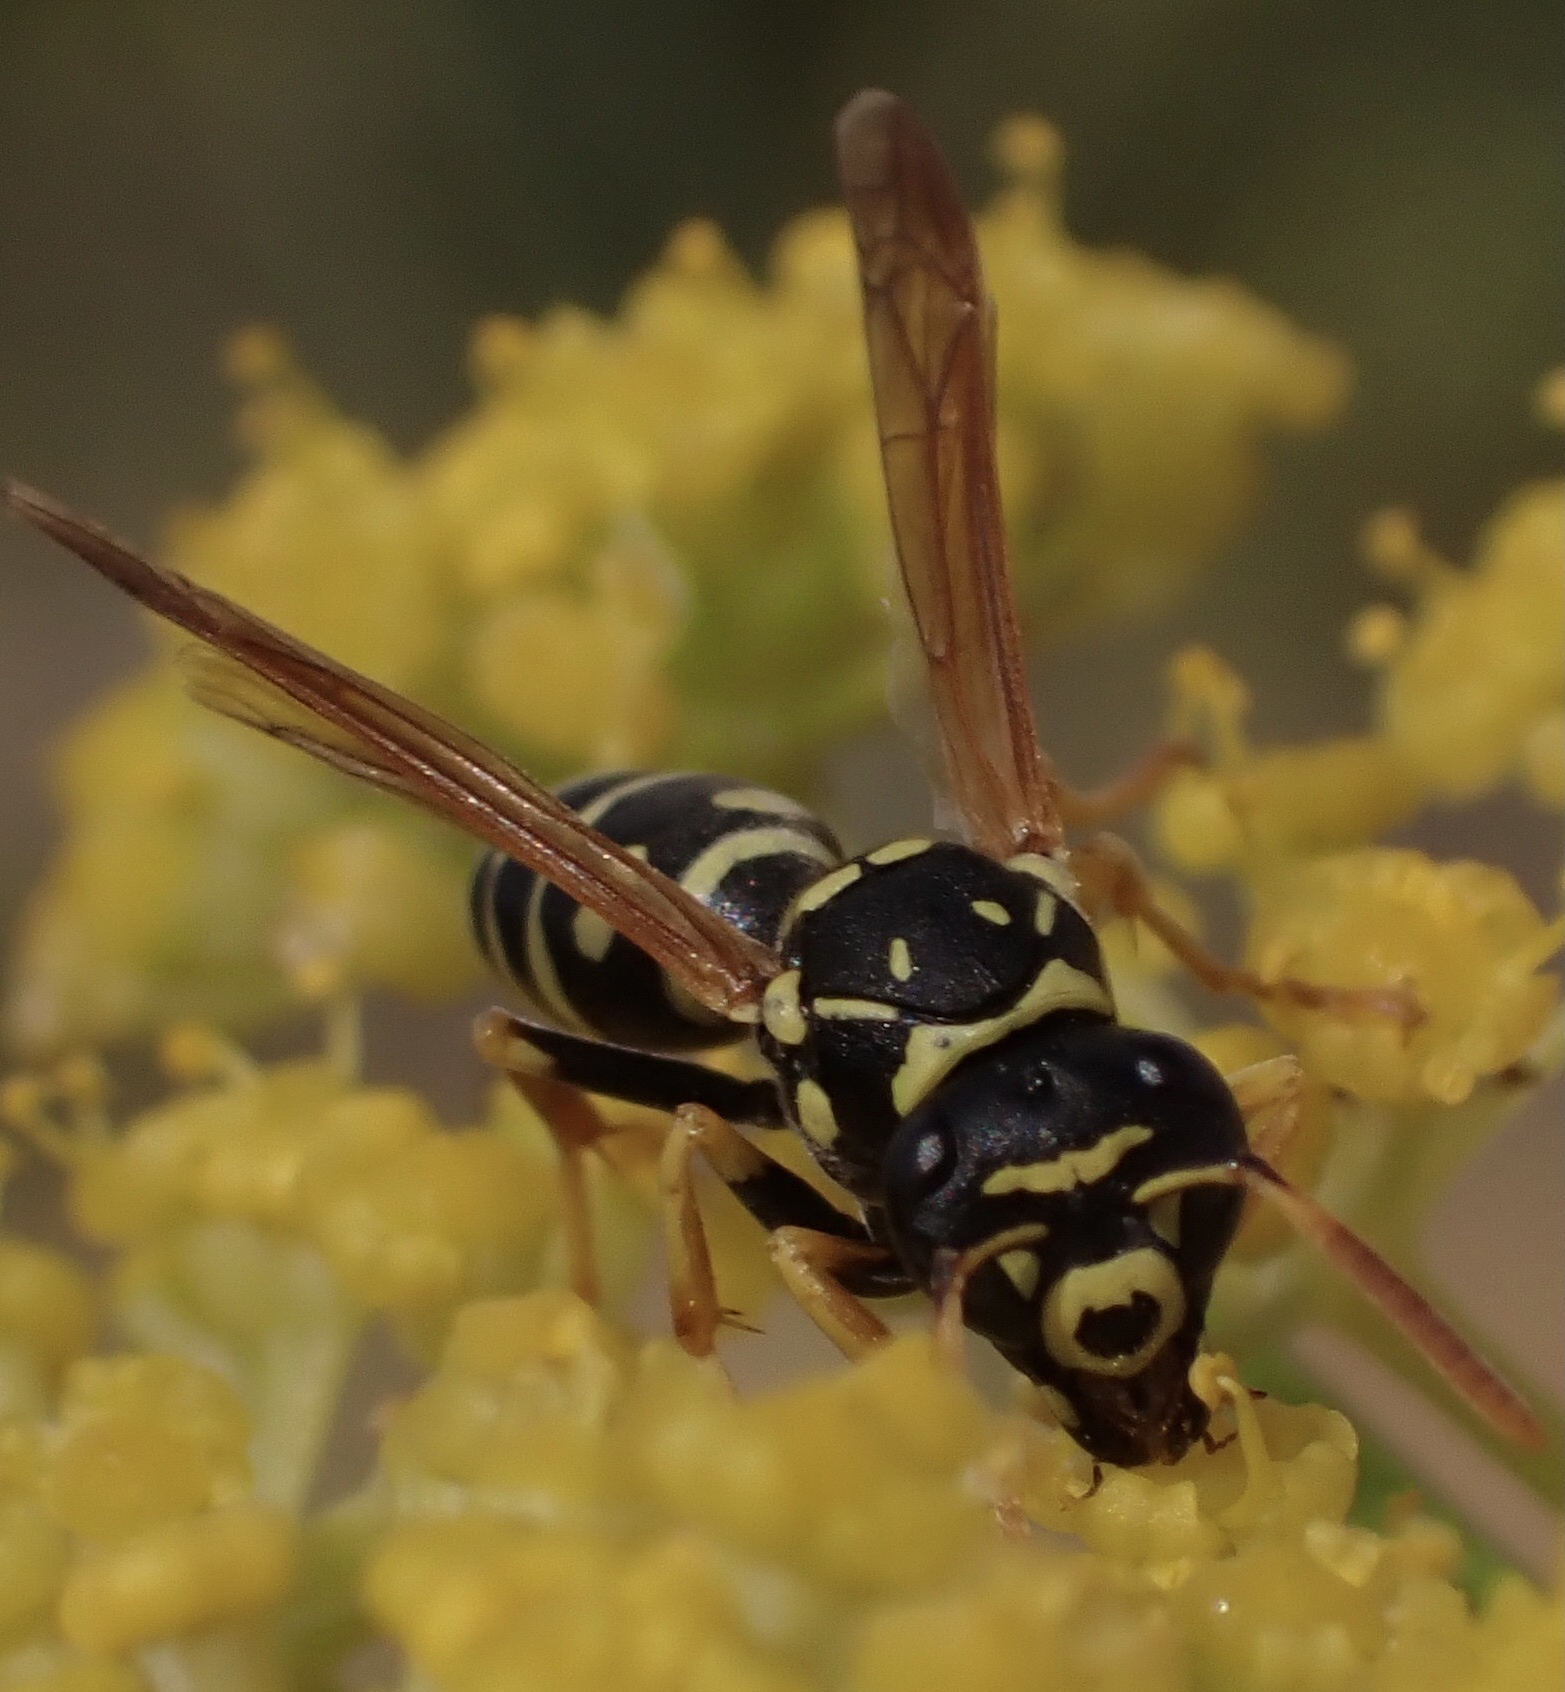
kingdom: Animalia
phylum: Arthropoda
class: Insecta
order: Hymenoptera
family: Eumenidae
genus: Polistes
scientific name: Polistes gallicus
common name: Paper wasp
